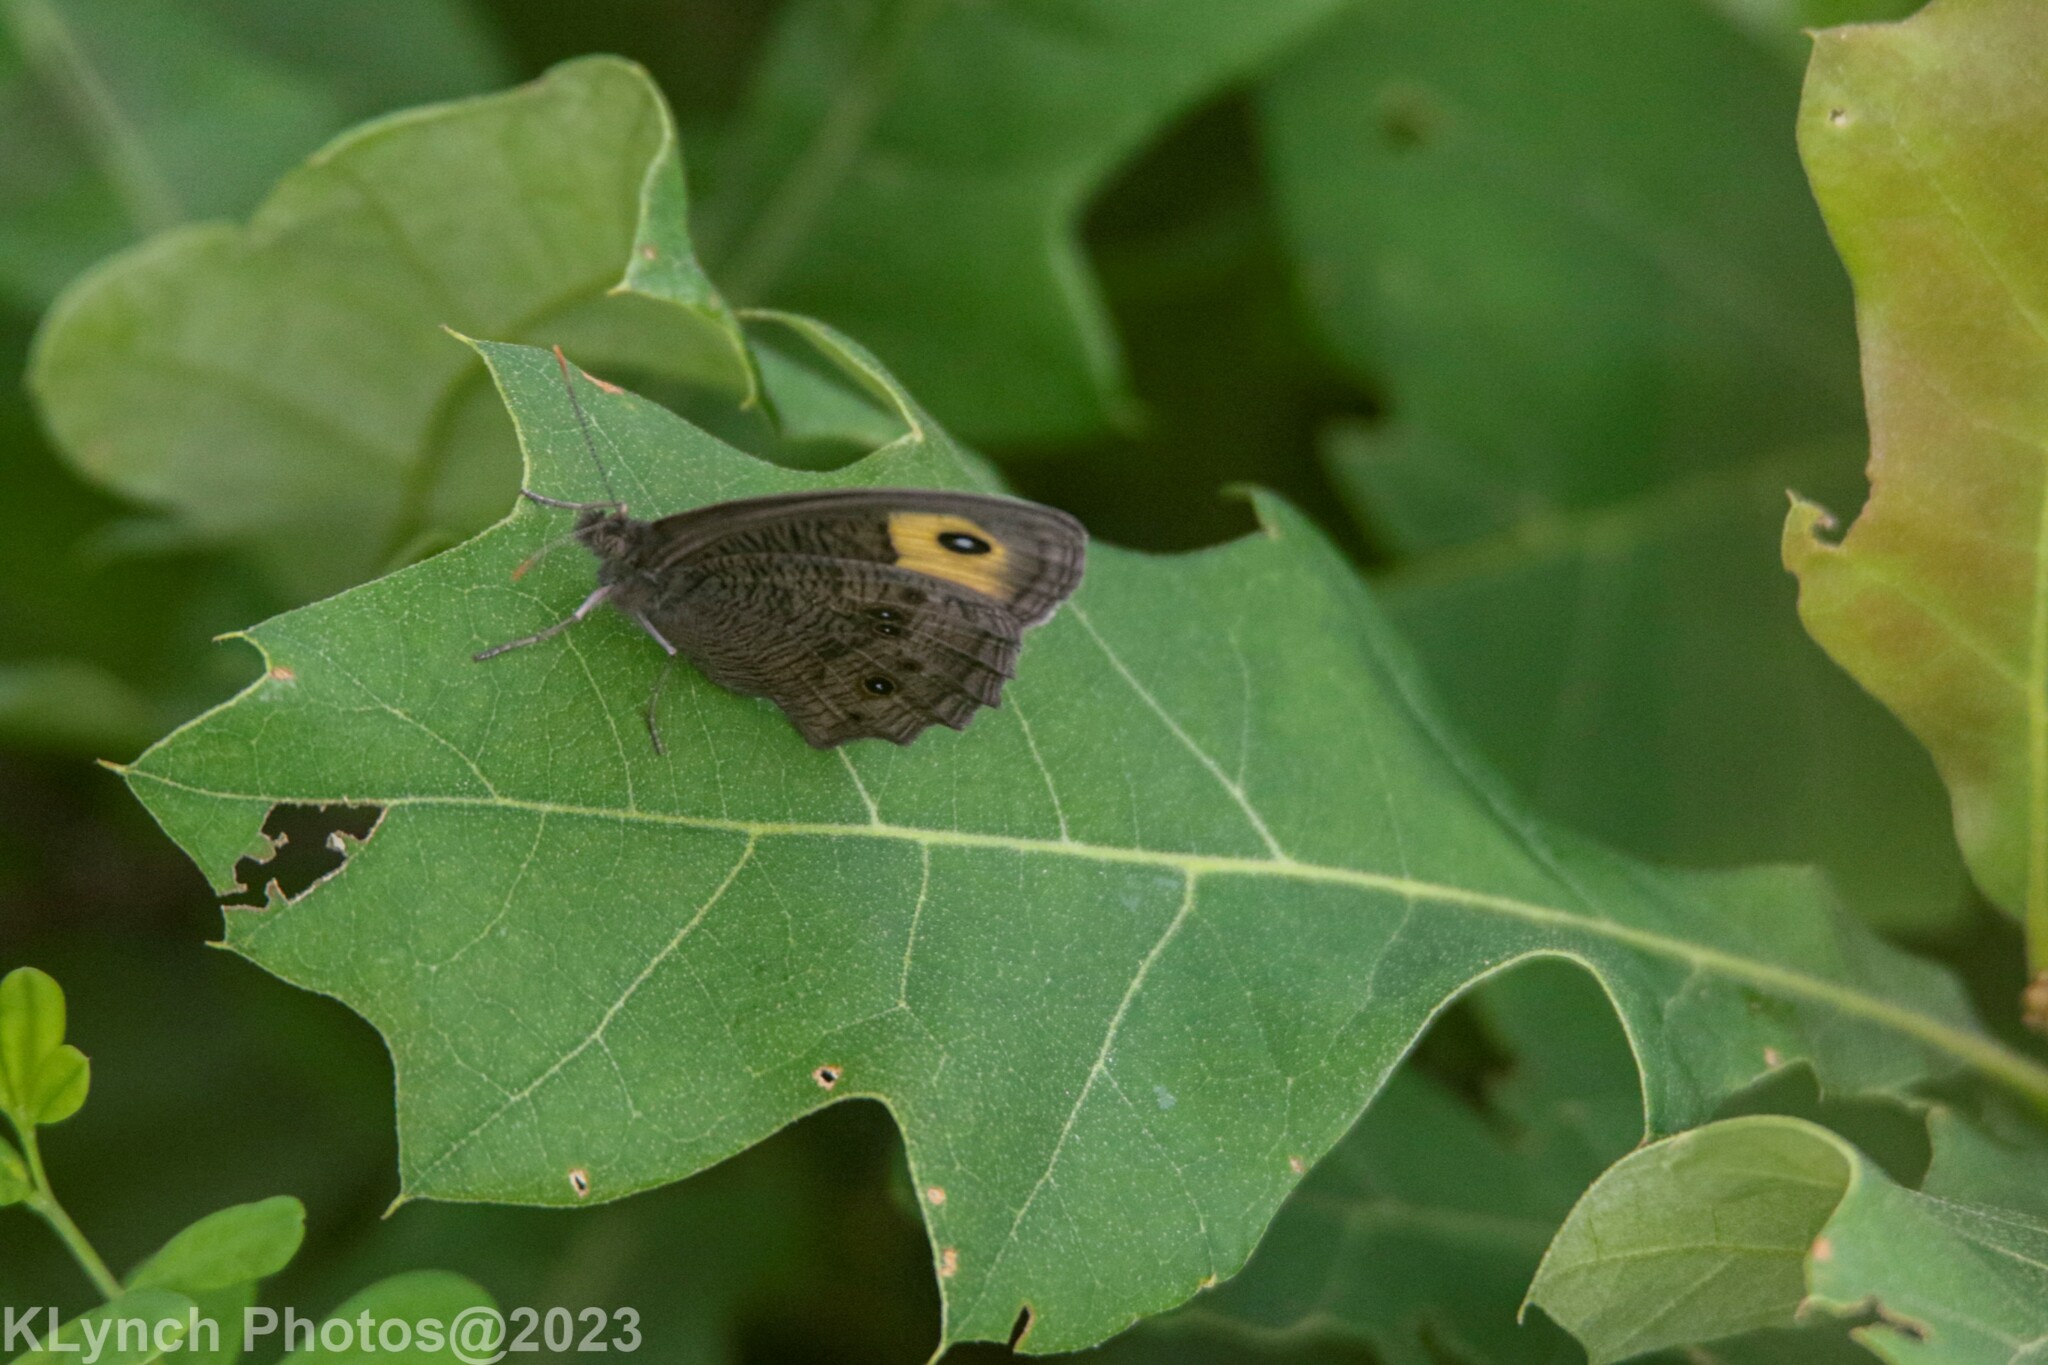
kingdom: Animalia
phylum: Arthropoda
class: Insecta
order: Lepidoptera
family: Nymphalidae
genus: Cercyonis
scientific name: Cercyonis pegala
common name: Common wood-nymph
